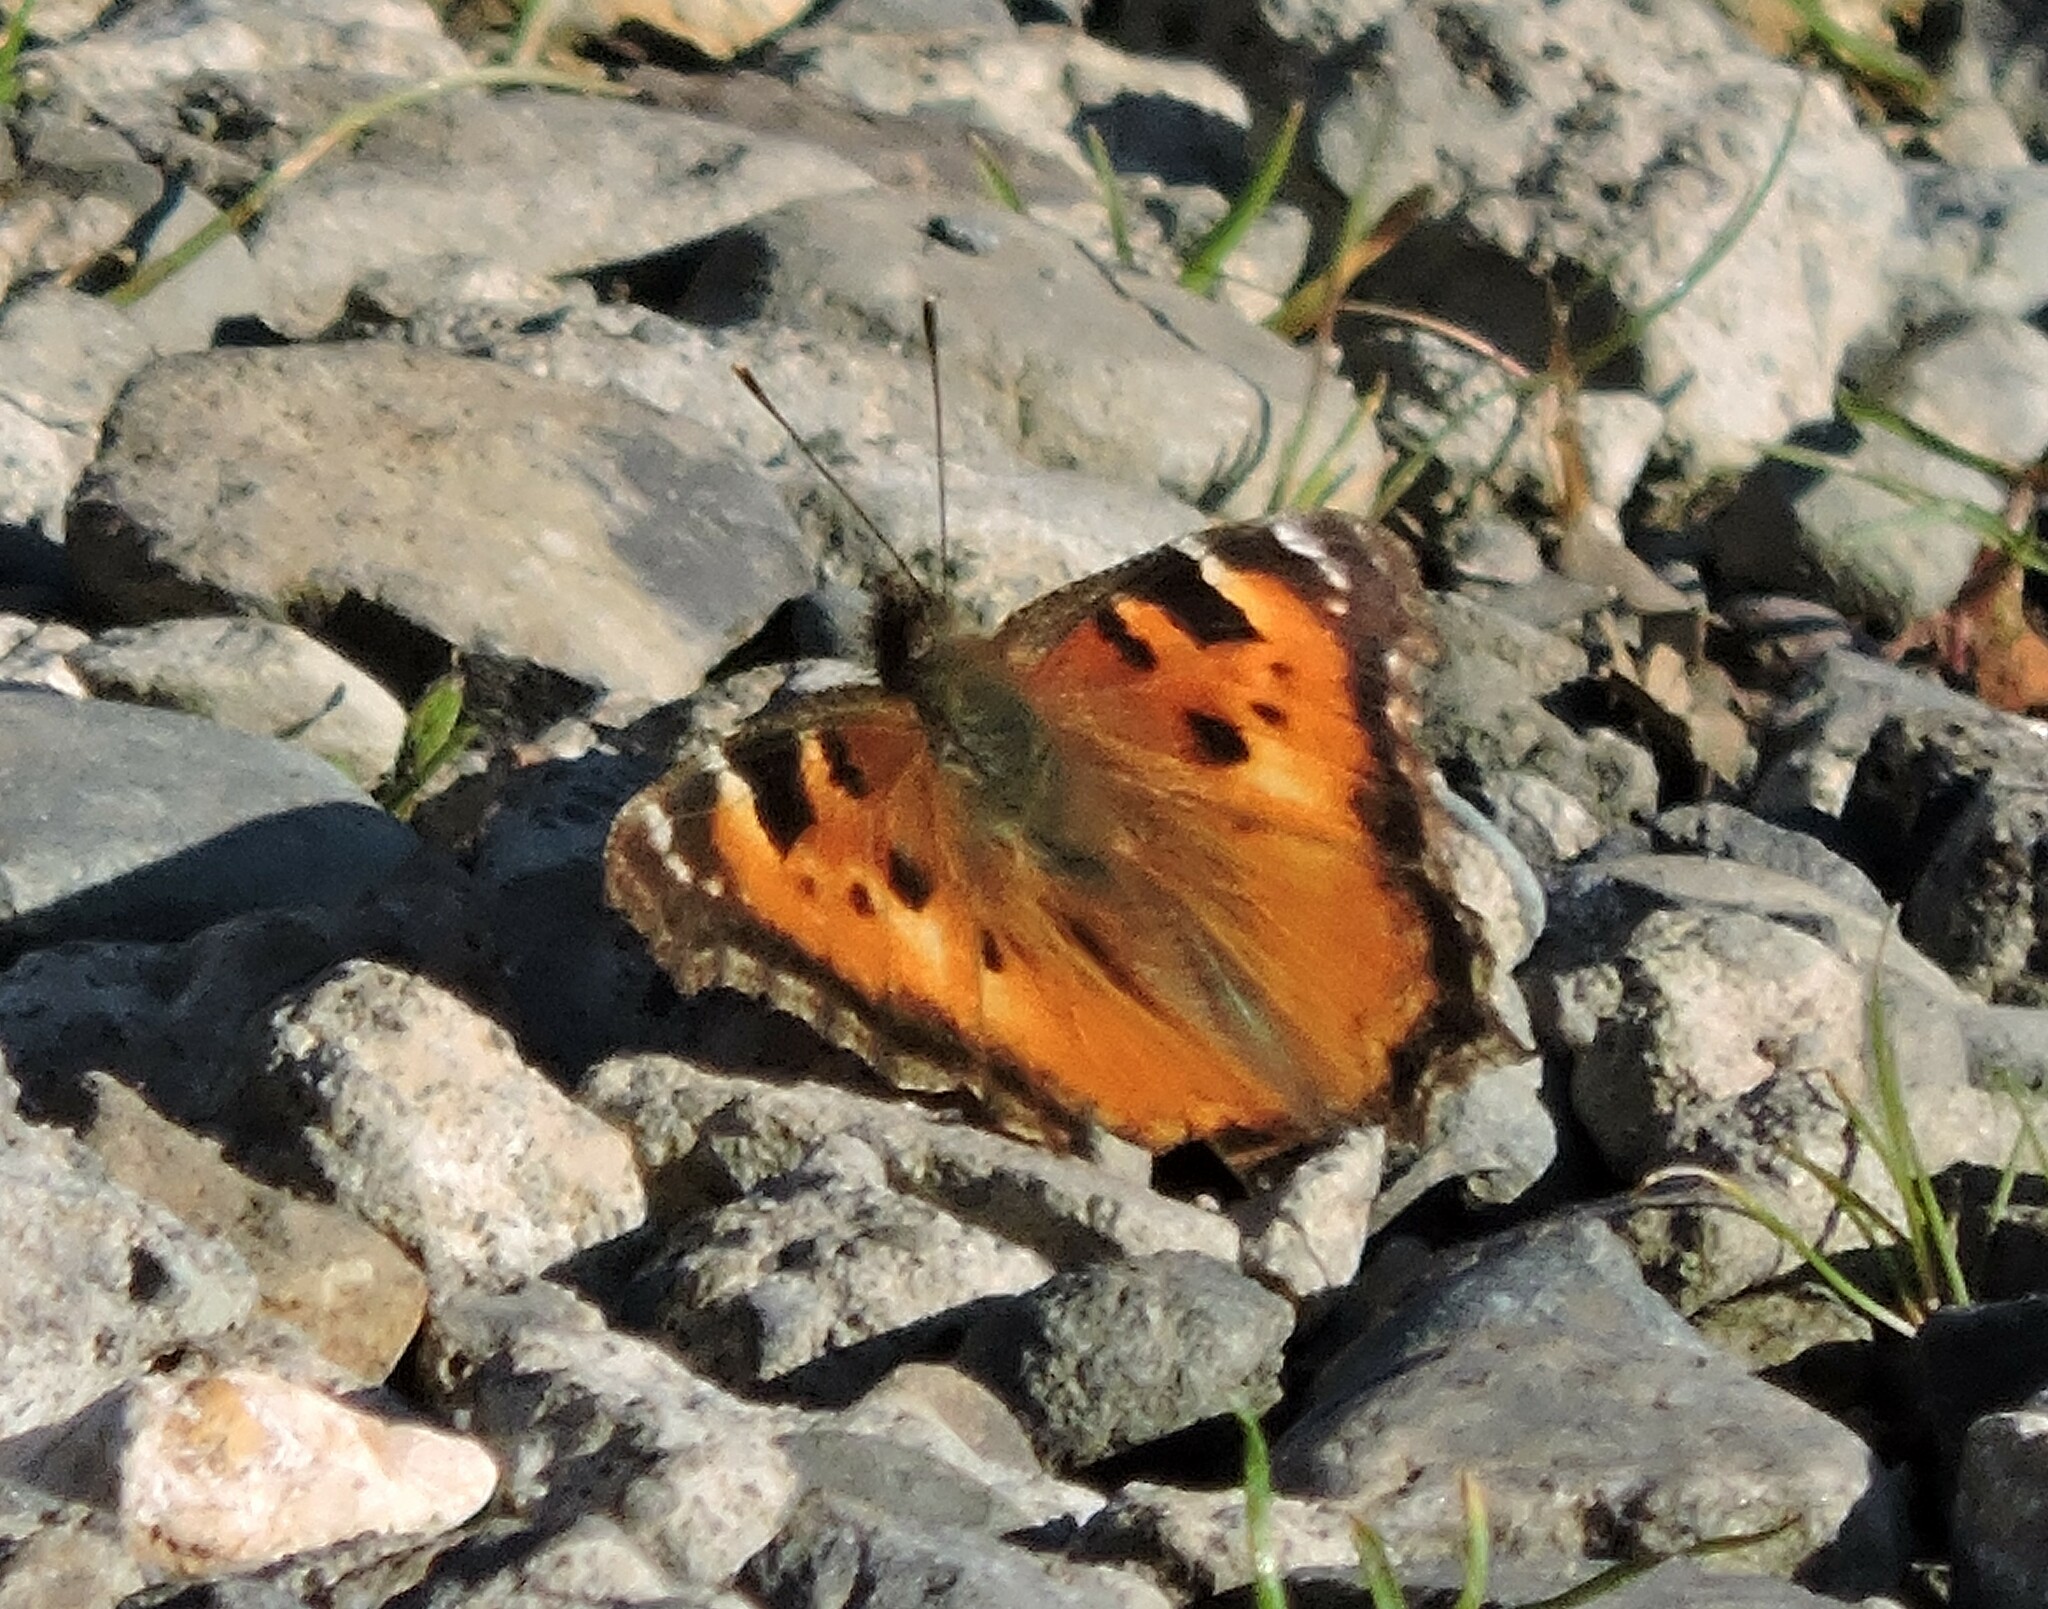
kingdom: Animalia
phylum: Arthropoda
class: Insecta
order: Lepidoptera
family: Nymphalidae
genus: Nymphalis
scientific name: Nymphalis californica
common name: California tortoiseshell
